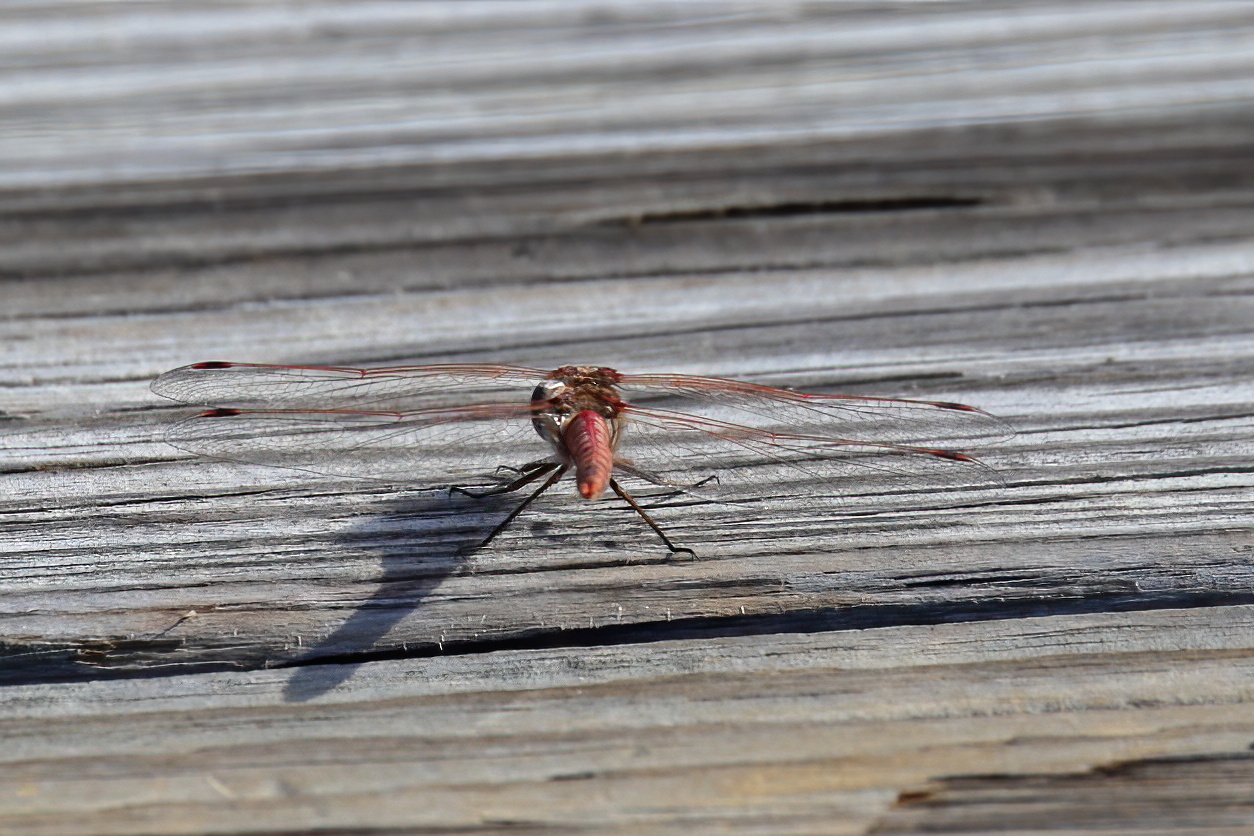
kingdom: Animalia
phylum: Arthropoda
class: Insecta
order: Odonata
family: Libellulidae
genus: Sympetrum
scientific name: Sympetrum corruptum
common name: Variegated meadowhawk
